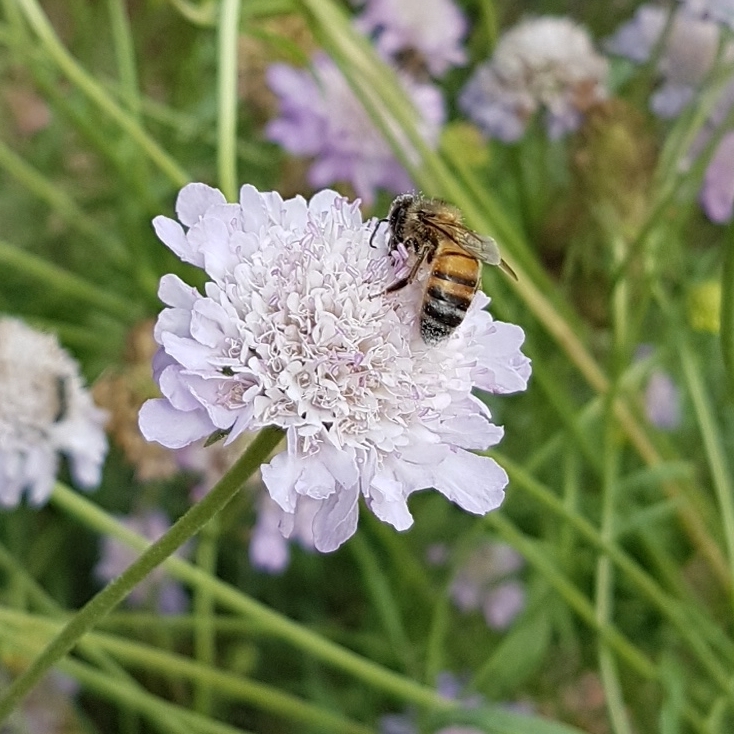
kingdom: Animalia
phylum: Arthropoda
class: Insecta
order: Hymenoptera
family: Apidae
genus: Apis
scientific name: Apis mellifera
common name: Honey bee
